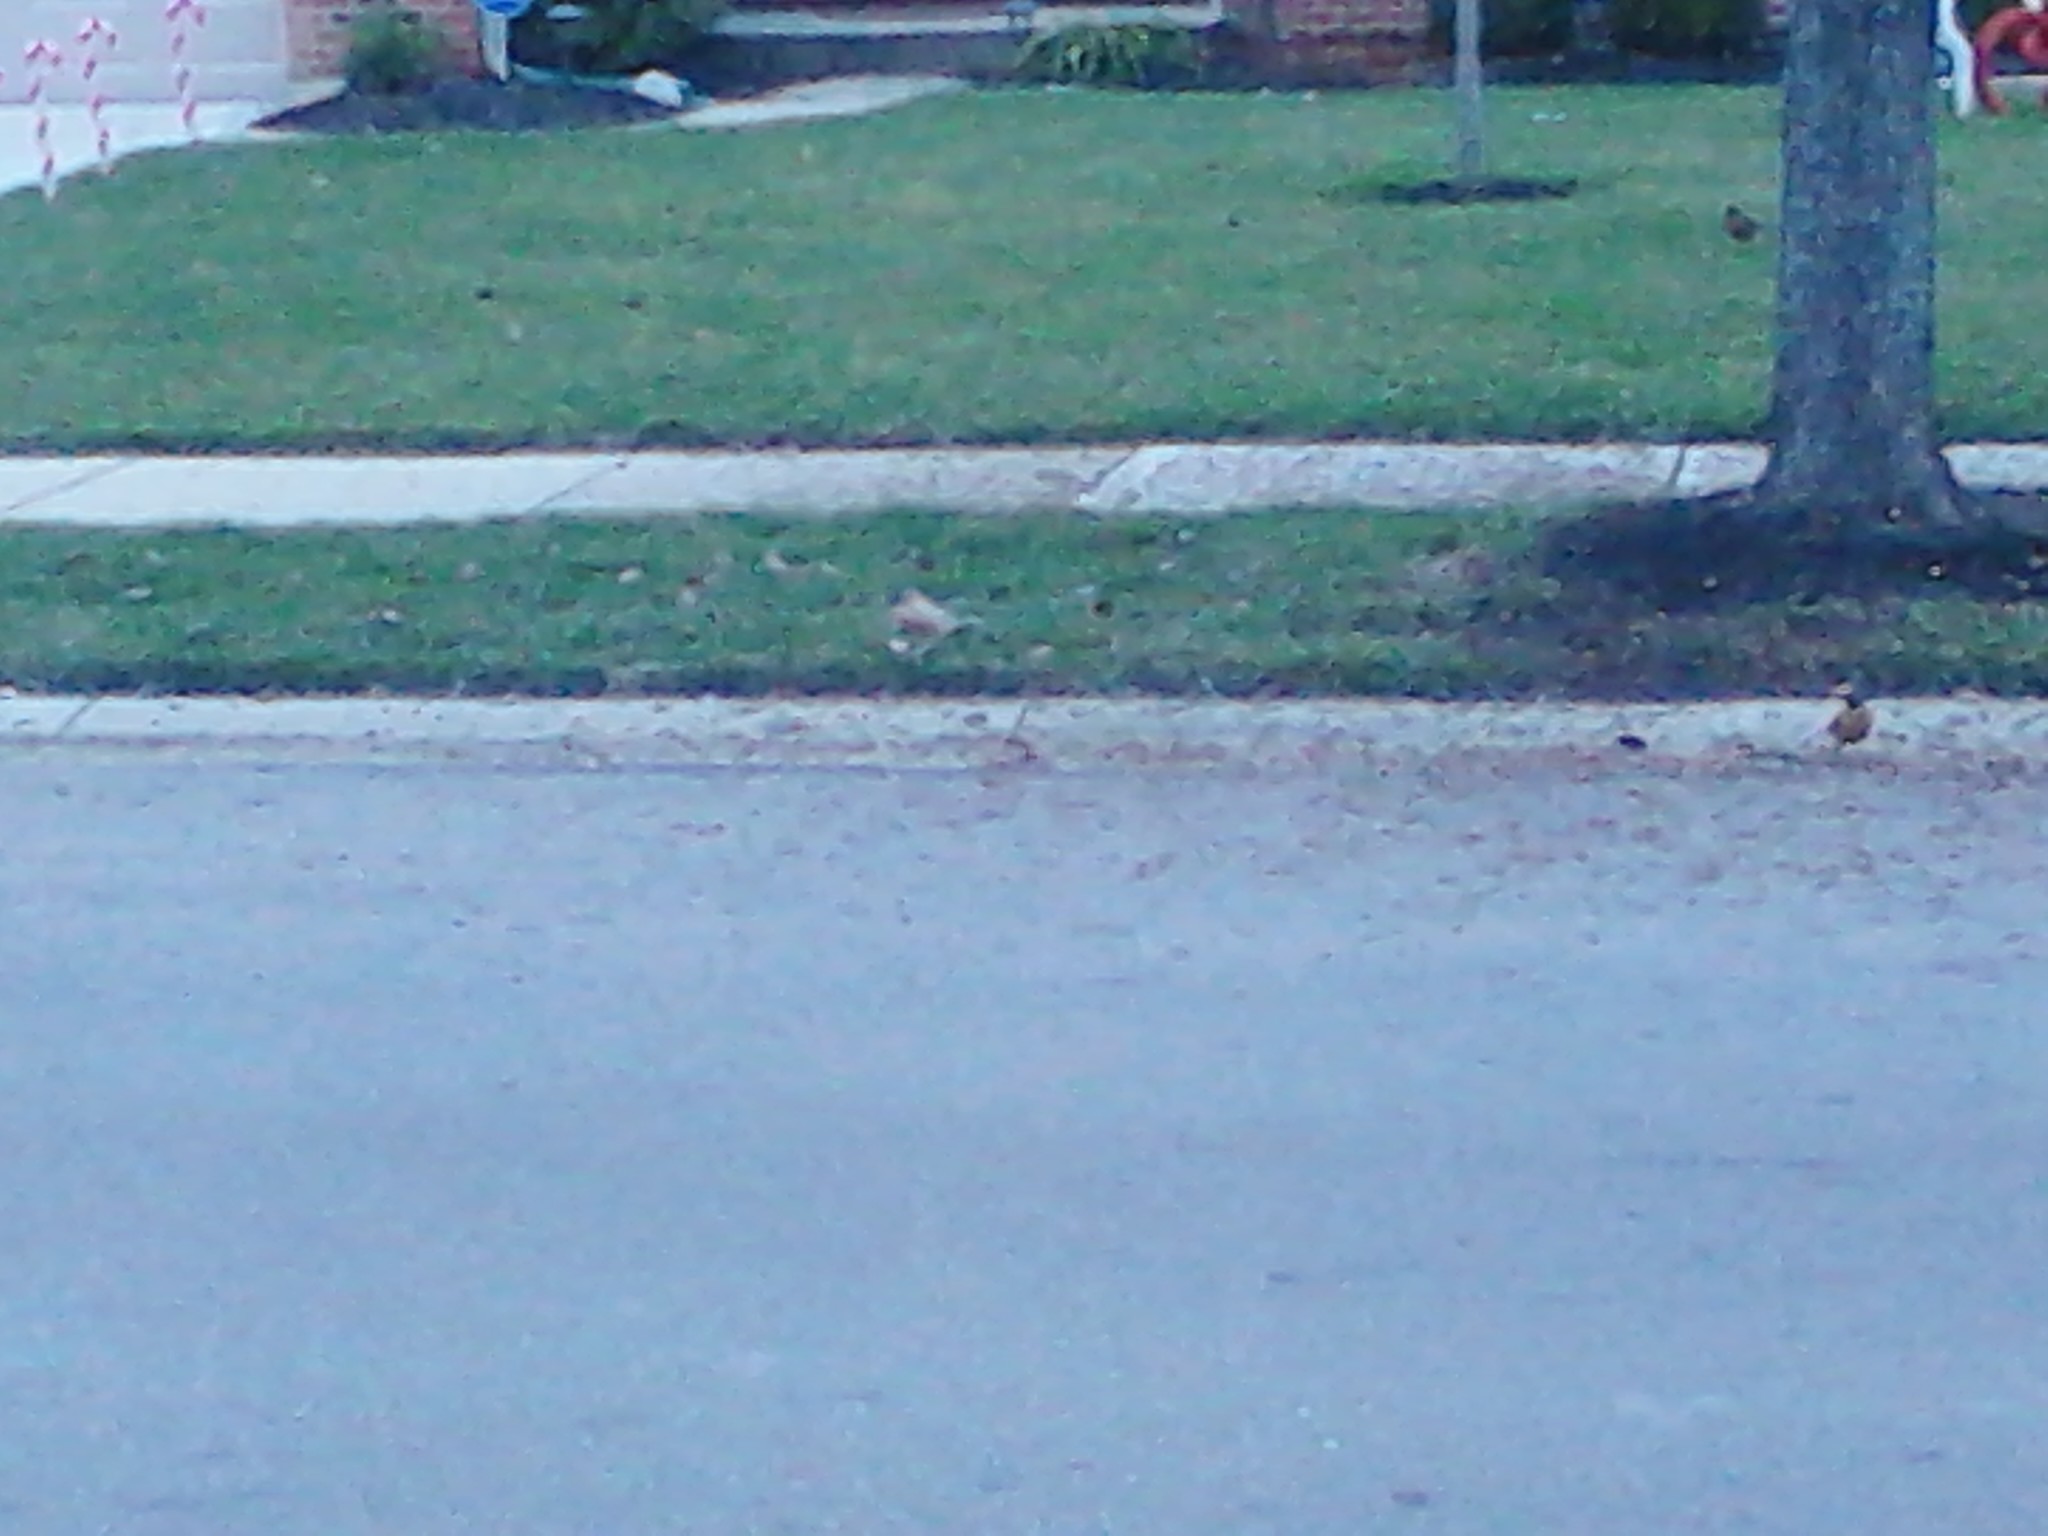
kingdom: Animalia
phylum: Chordata
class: Aves
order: Passeriformes
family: Turdidae
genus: Turdus
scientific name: Turdus migratorius
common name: American robin
